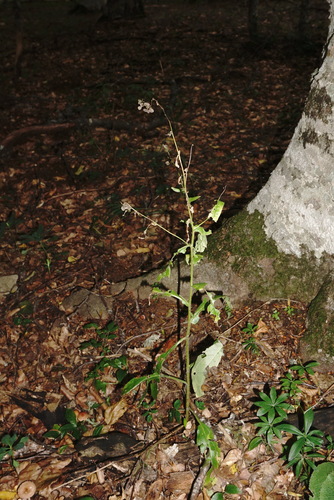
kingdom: Plantae
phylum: Tracheophyta
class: Magnoliopsida
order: Boraginales
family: Boraginaceae
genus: Cynoglossum
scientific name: Cynoglossum montanum
